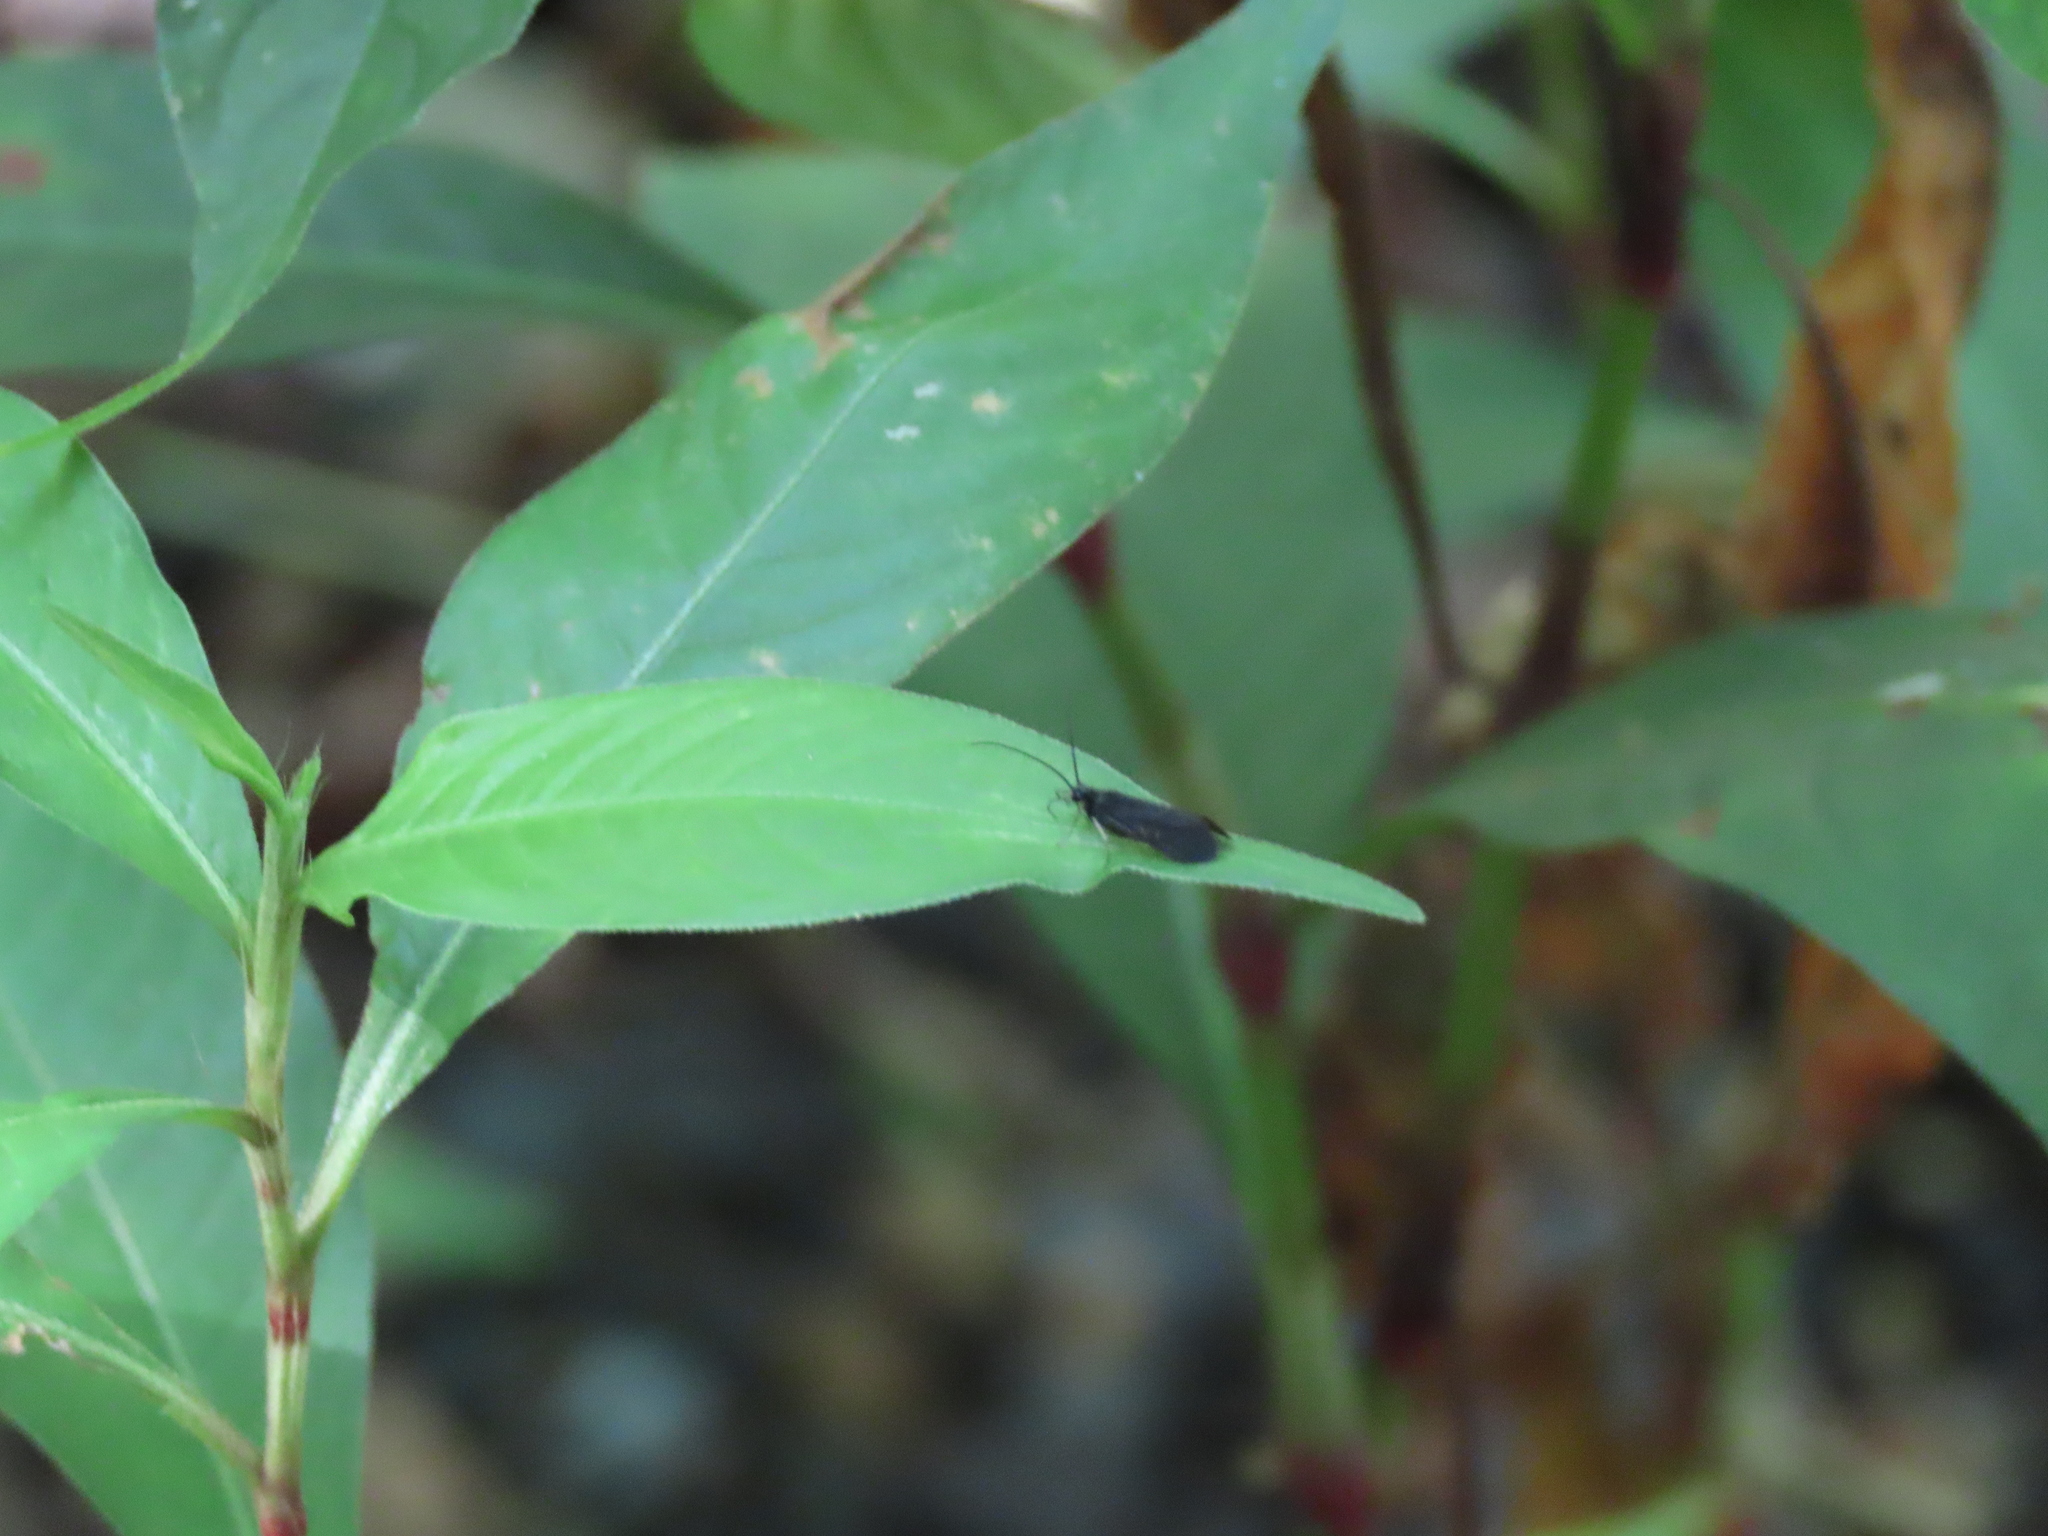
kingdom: Animalia
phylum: Arthropoda
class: Insecta
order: Trichoptera
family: Philopotamidae
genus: Chimarra
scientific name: Chimarra
